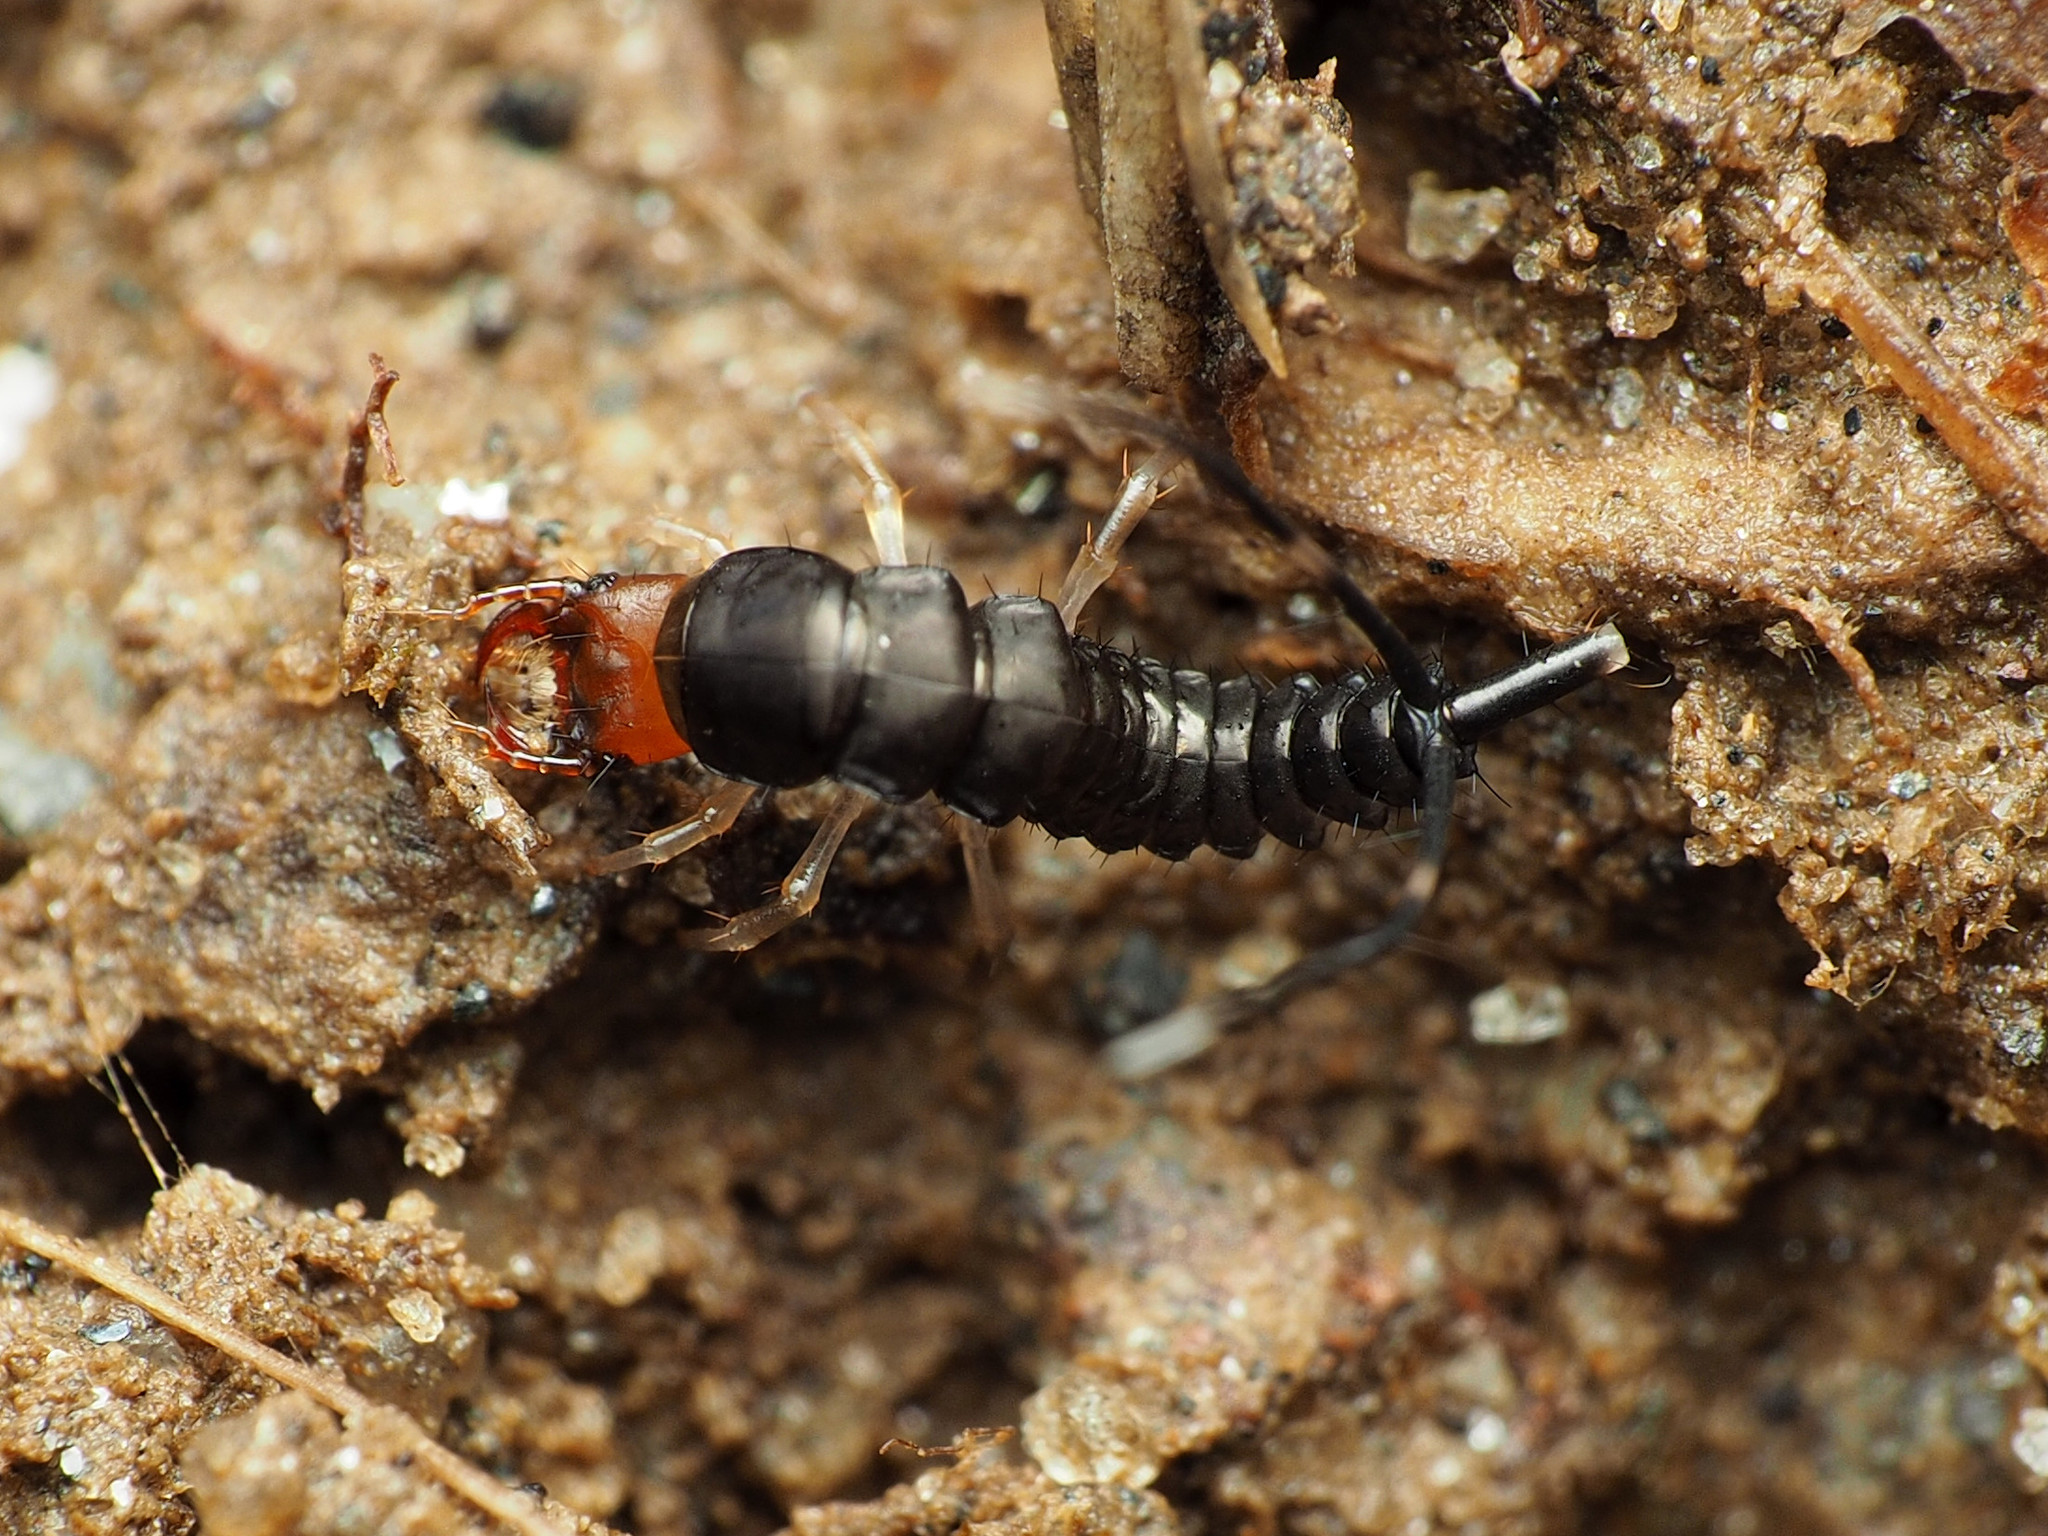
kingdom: Animalia
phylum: Arthropoda
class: Insecta
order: Coleoptera
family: Carabidae
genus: Chlaenius
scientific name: Chlaenius
